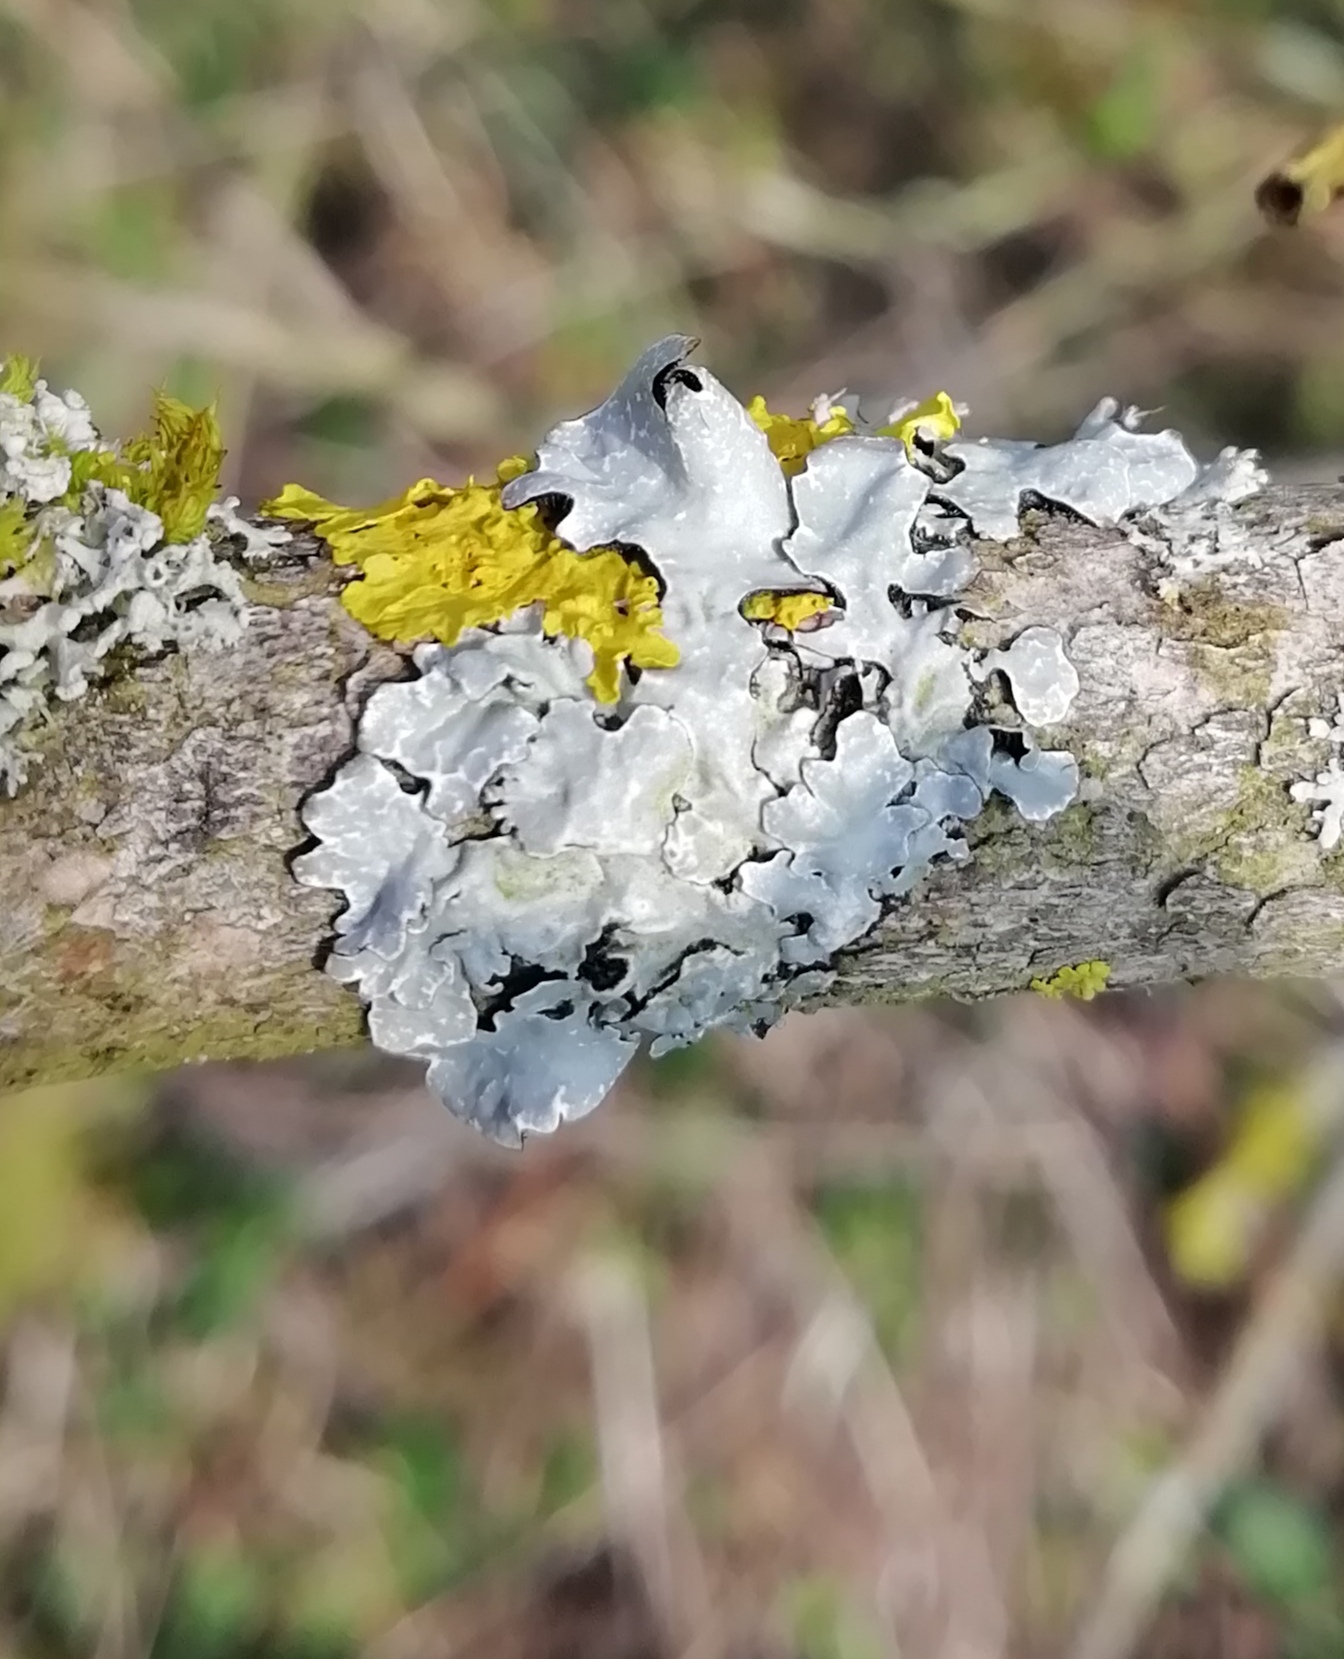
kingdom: Fungi
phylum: Ascomycota
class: Lecanoromycetes
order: Lecanorales
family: Parmeliaceae
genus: Parmelia
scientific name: Parmelia sulcata
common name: Netted shield lichen
